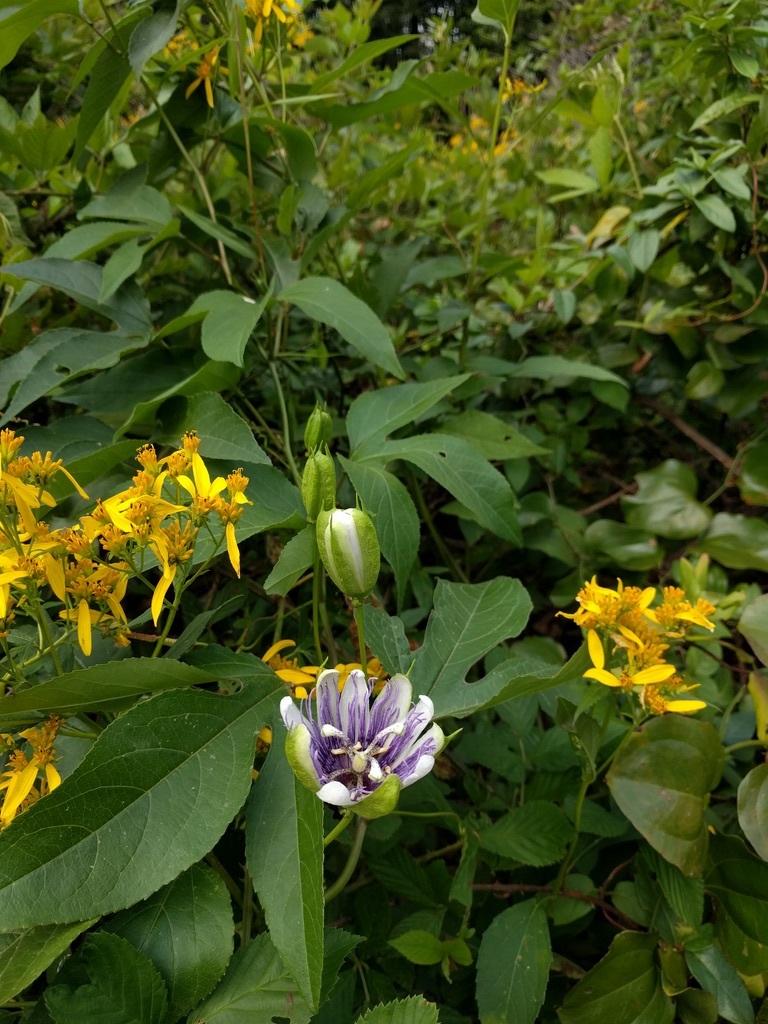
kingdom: Plantae
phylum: Tracheophyta
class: Magnoliopsida
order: Malpighiales
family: Passifloraceae
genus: Passiflora
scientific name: Passiflora incarnata
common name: Apricot-vine
